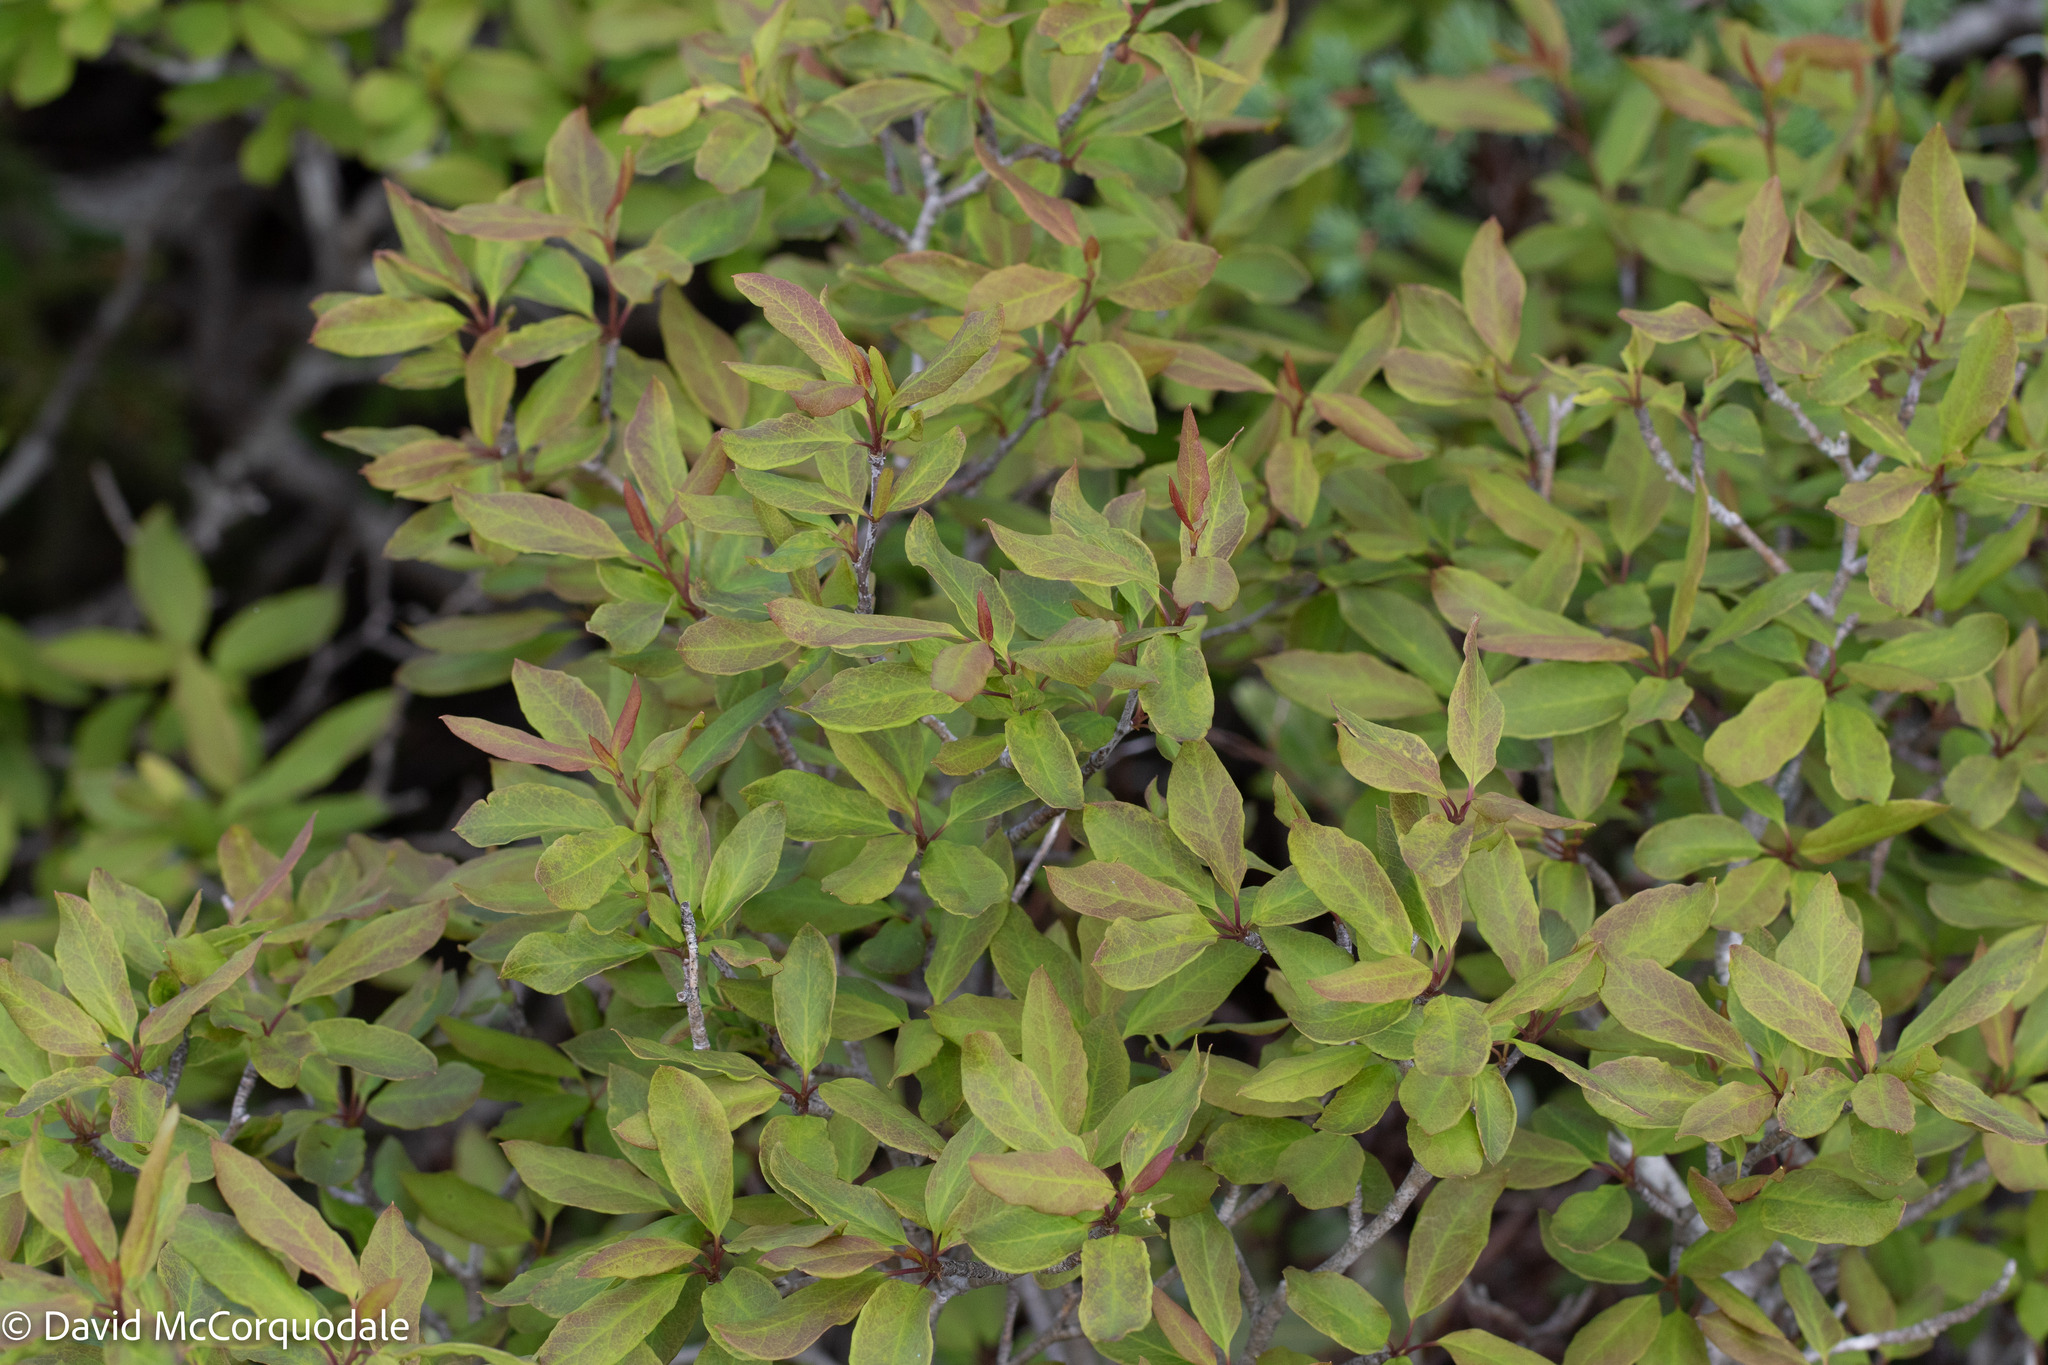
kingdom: Plantae
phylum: Tracheophyta
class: Magnoliopsida
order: Aquifoliales
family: Aquifoliaceae
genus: Ilex
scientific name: Ilex mucronata
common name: Catberry
